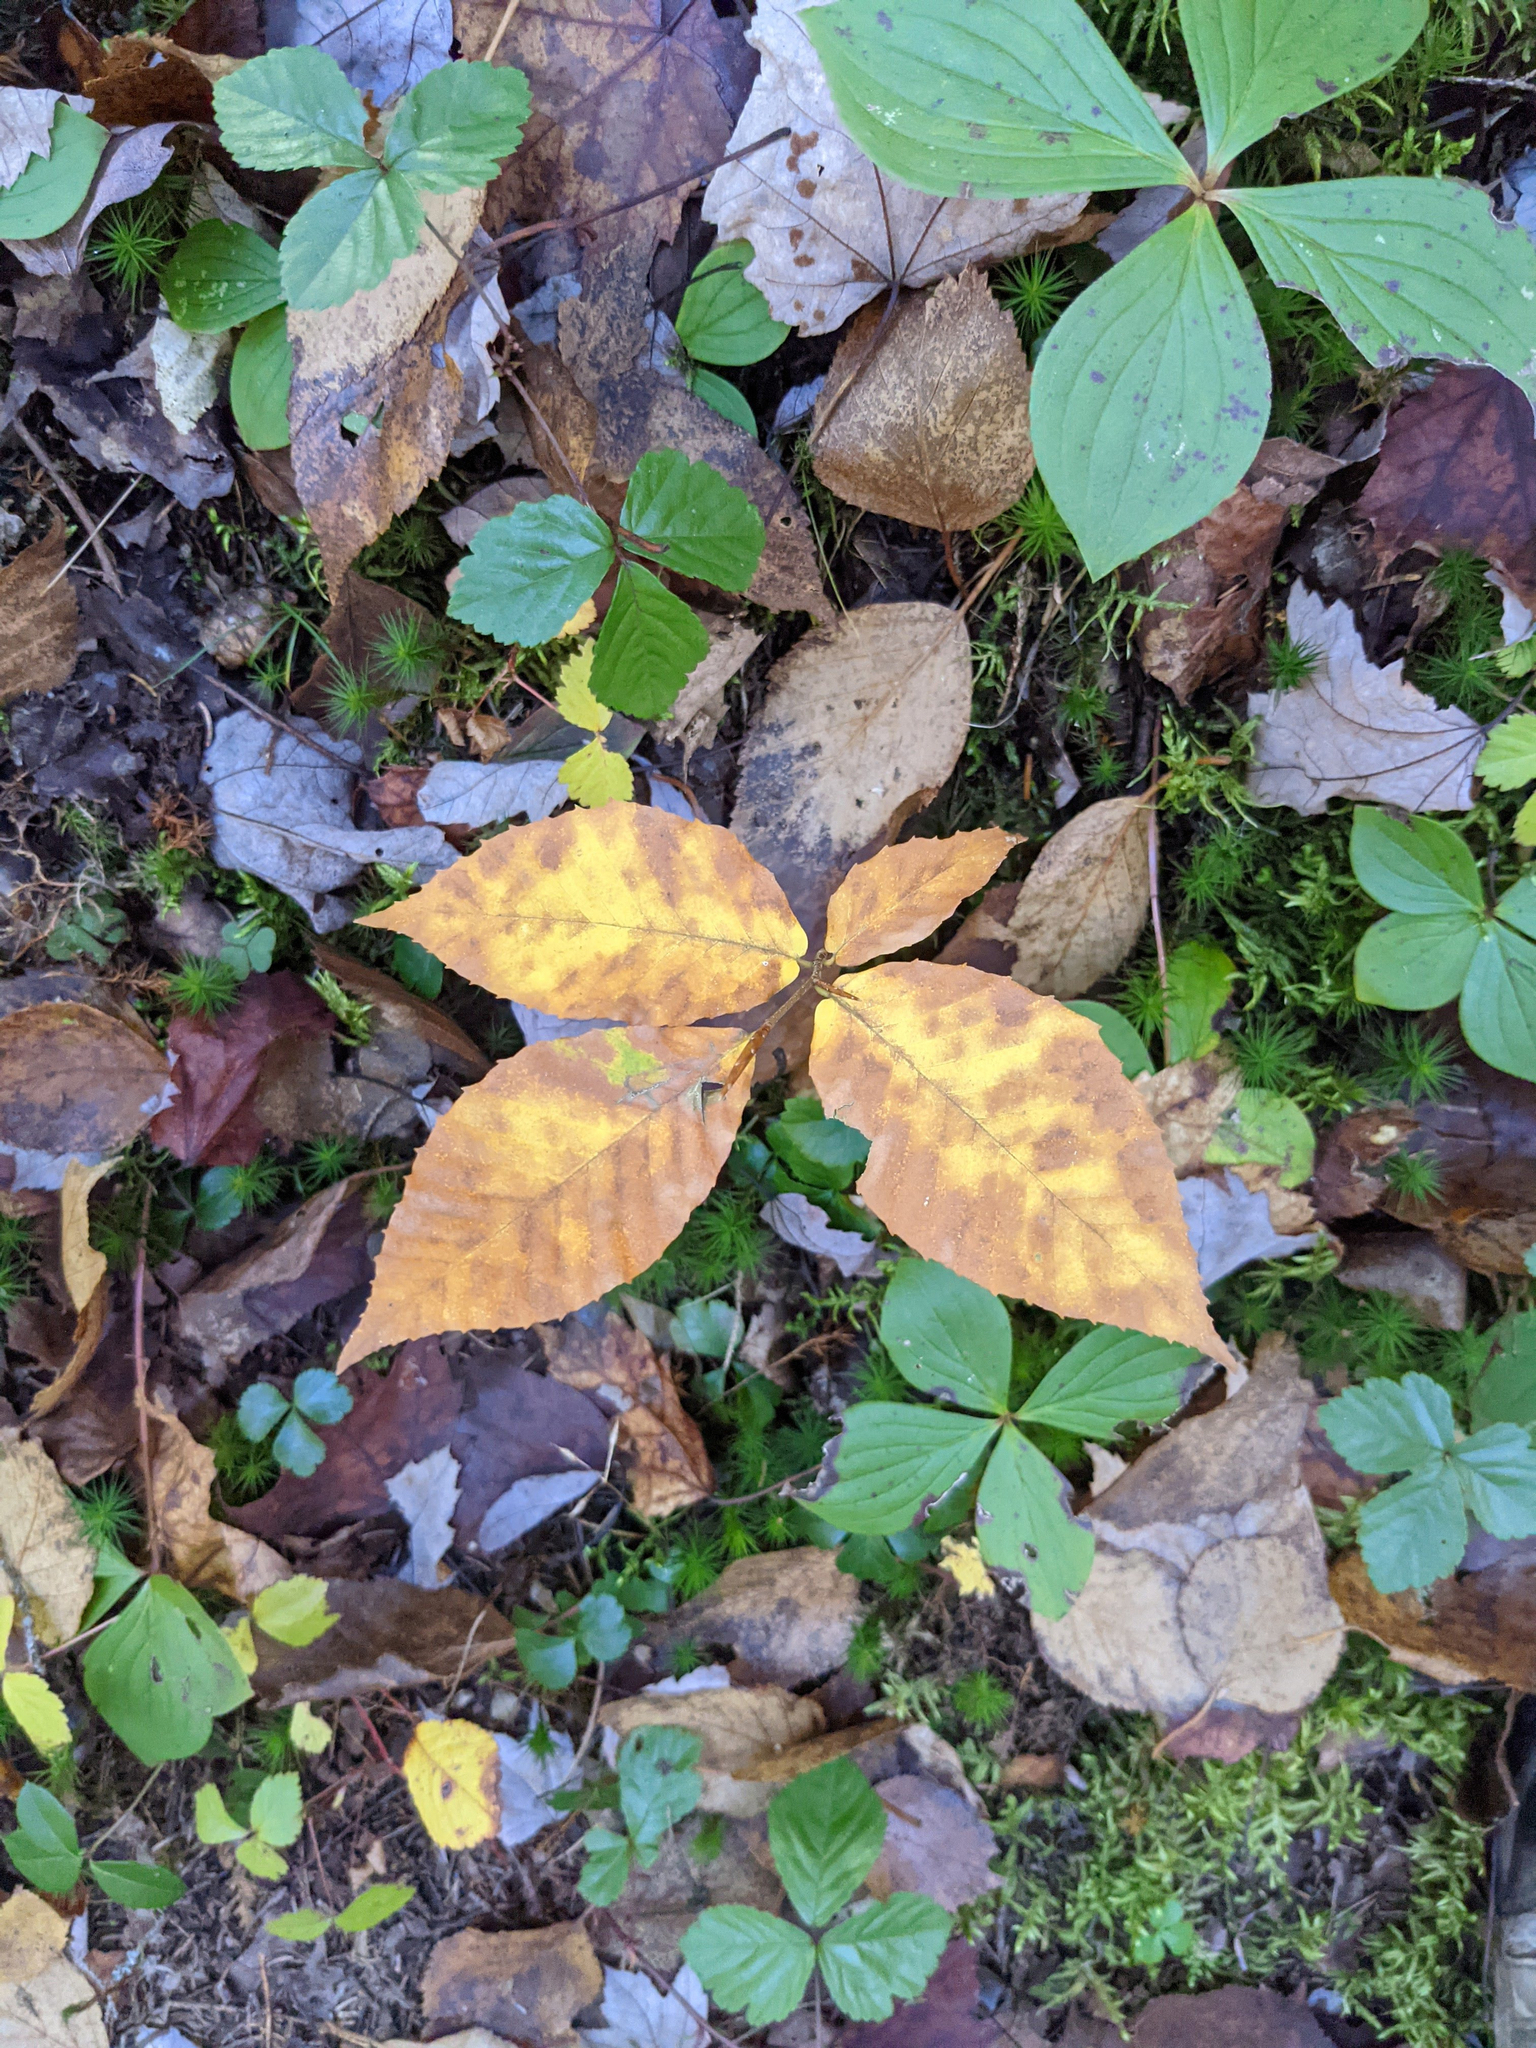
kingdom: Plantae
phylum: Tracheophyta
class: Magnoliopsida
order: Fagales
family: Fagaceae
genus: Fagus
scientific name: Fagus grandifolia
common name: American beech
